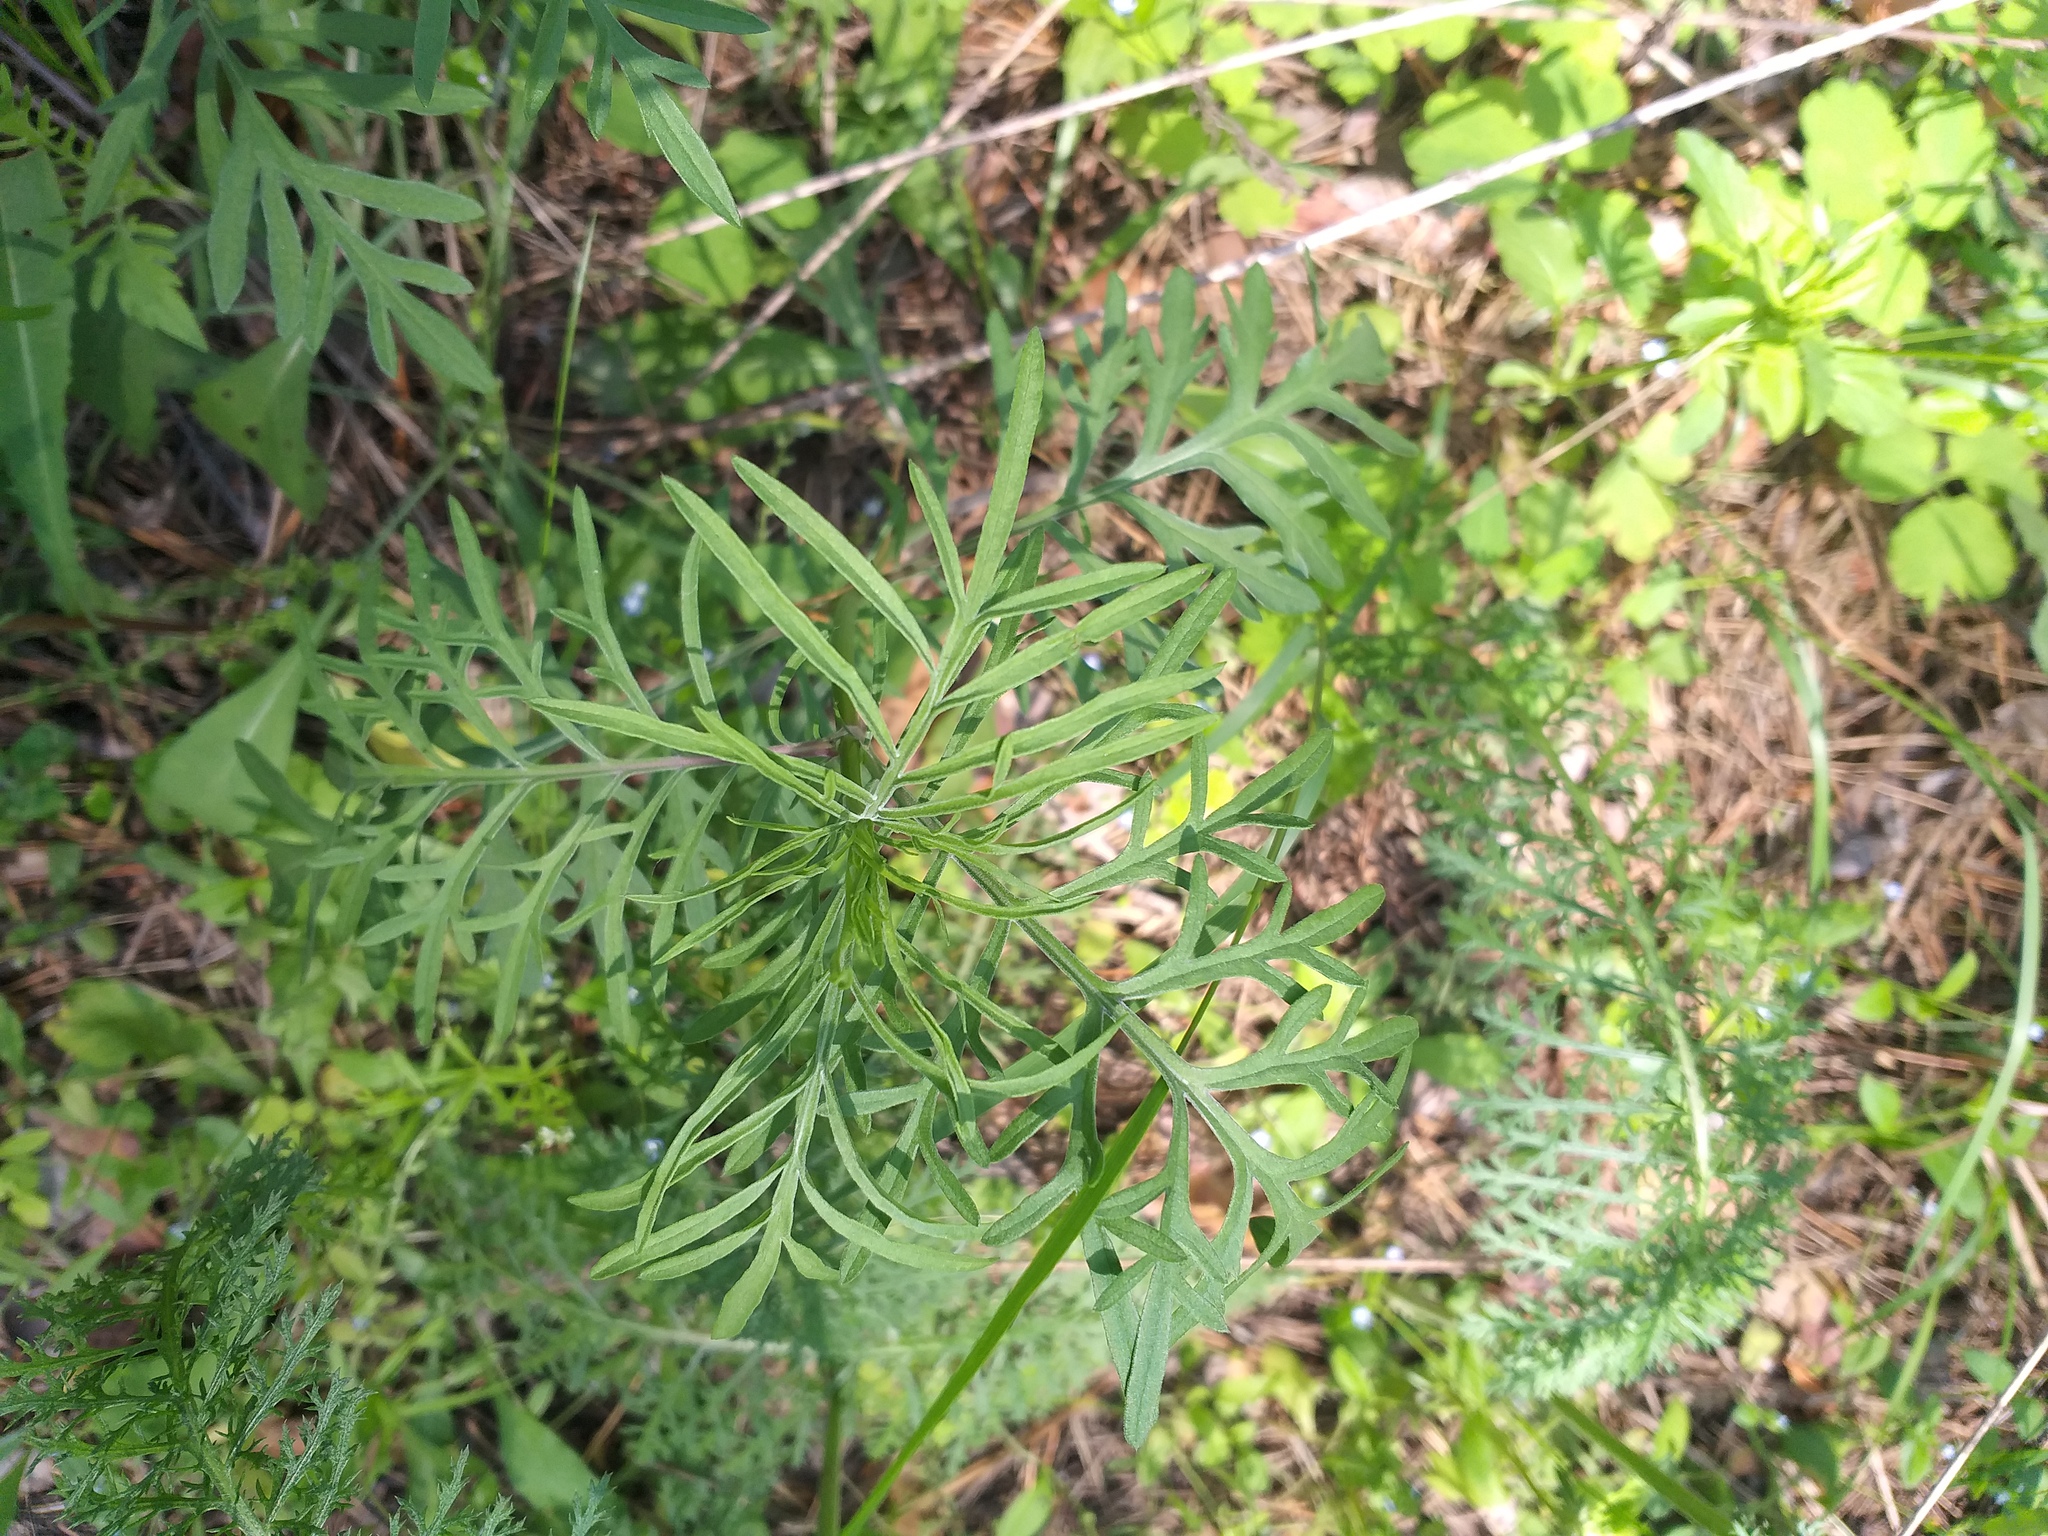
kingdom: Plantae
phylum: Tracheophyta
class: Magnoliopsida
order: Dipsacales
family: Caprifoliaceae
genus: Scabiosa
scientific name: Scabiosa ochroleuca
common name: Cream pincushions
